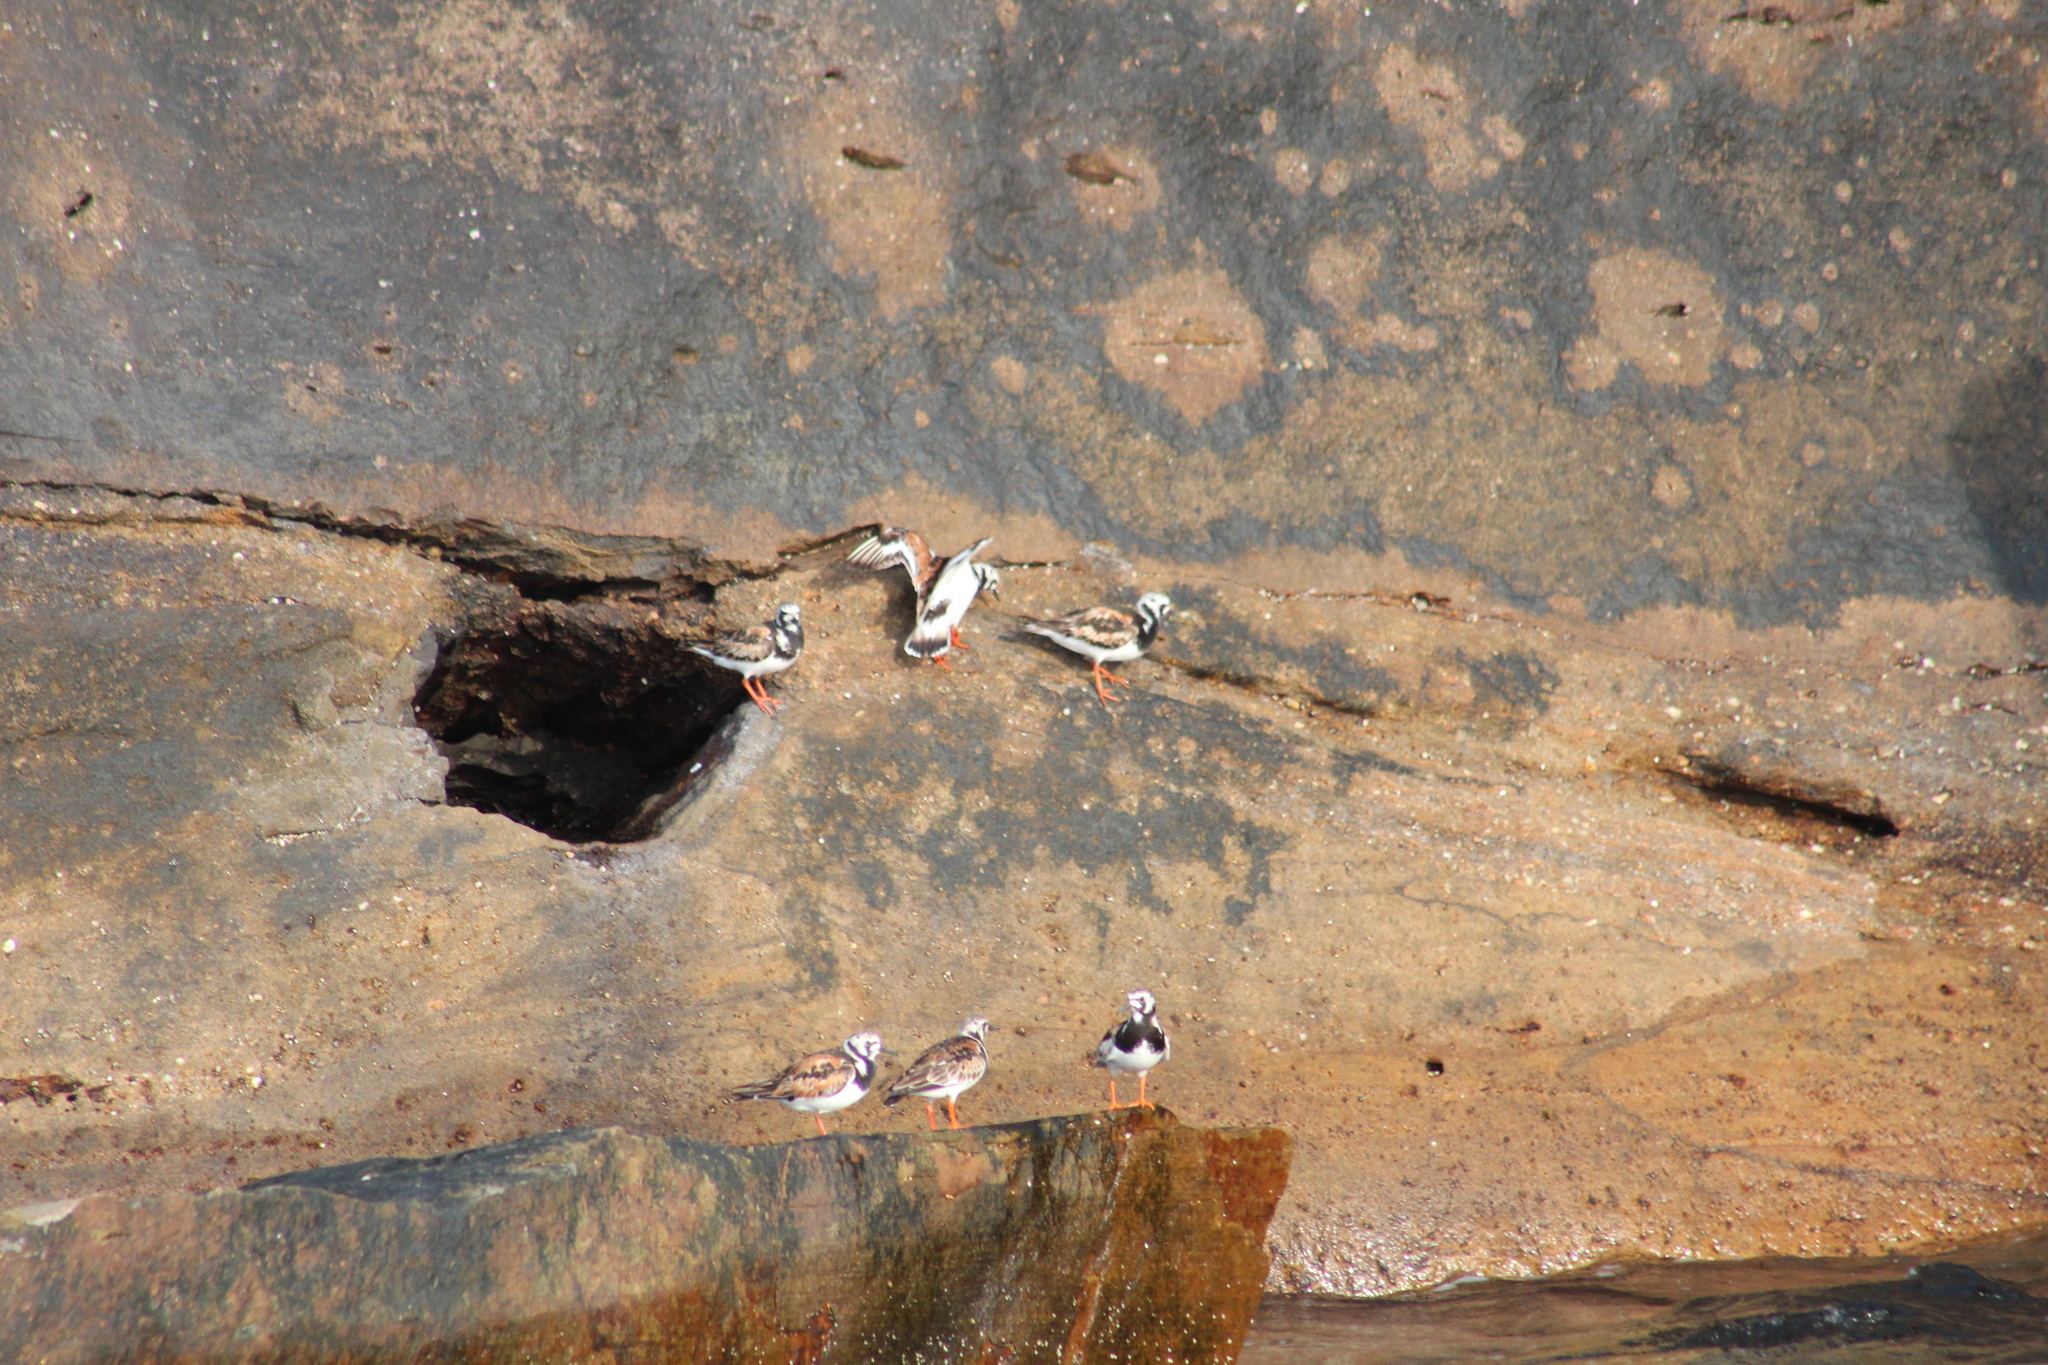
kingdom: Animalia
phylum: Chordata
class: Aves
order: Charadriiformes
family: Scolopacidae
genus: Arenaria
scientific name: Arenaria interpres
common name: Ruddy turnstone
